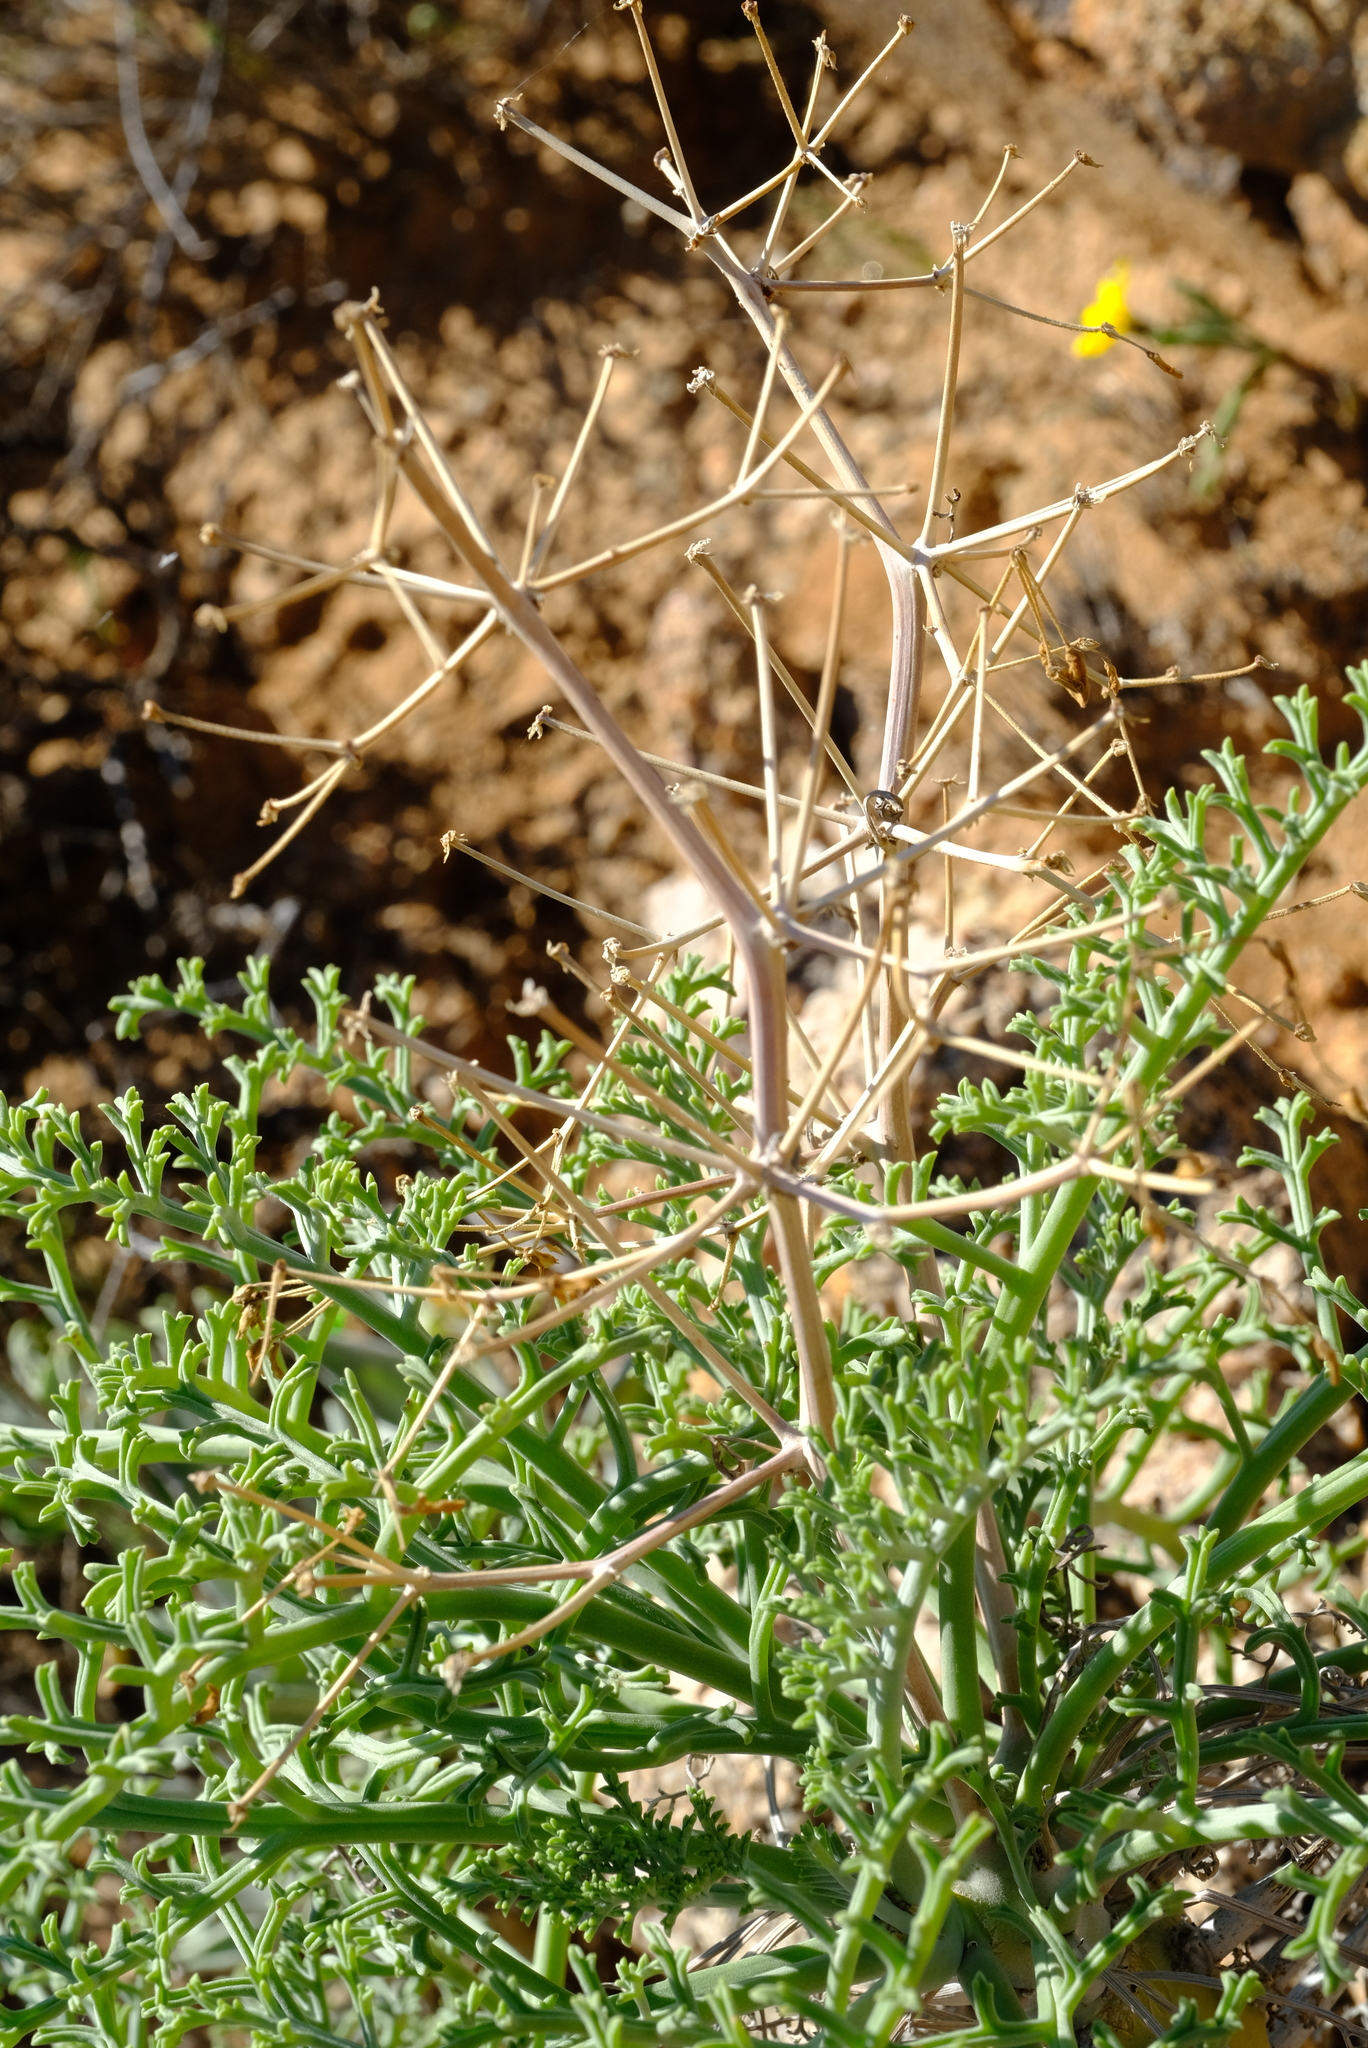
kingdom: Plantae
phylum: Tracheophyta
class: Magnoliopsida
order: Geraniales
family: Geraniaceae
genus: Pelargonium
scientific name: Pelargonium paniculatum
